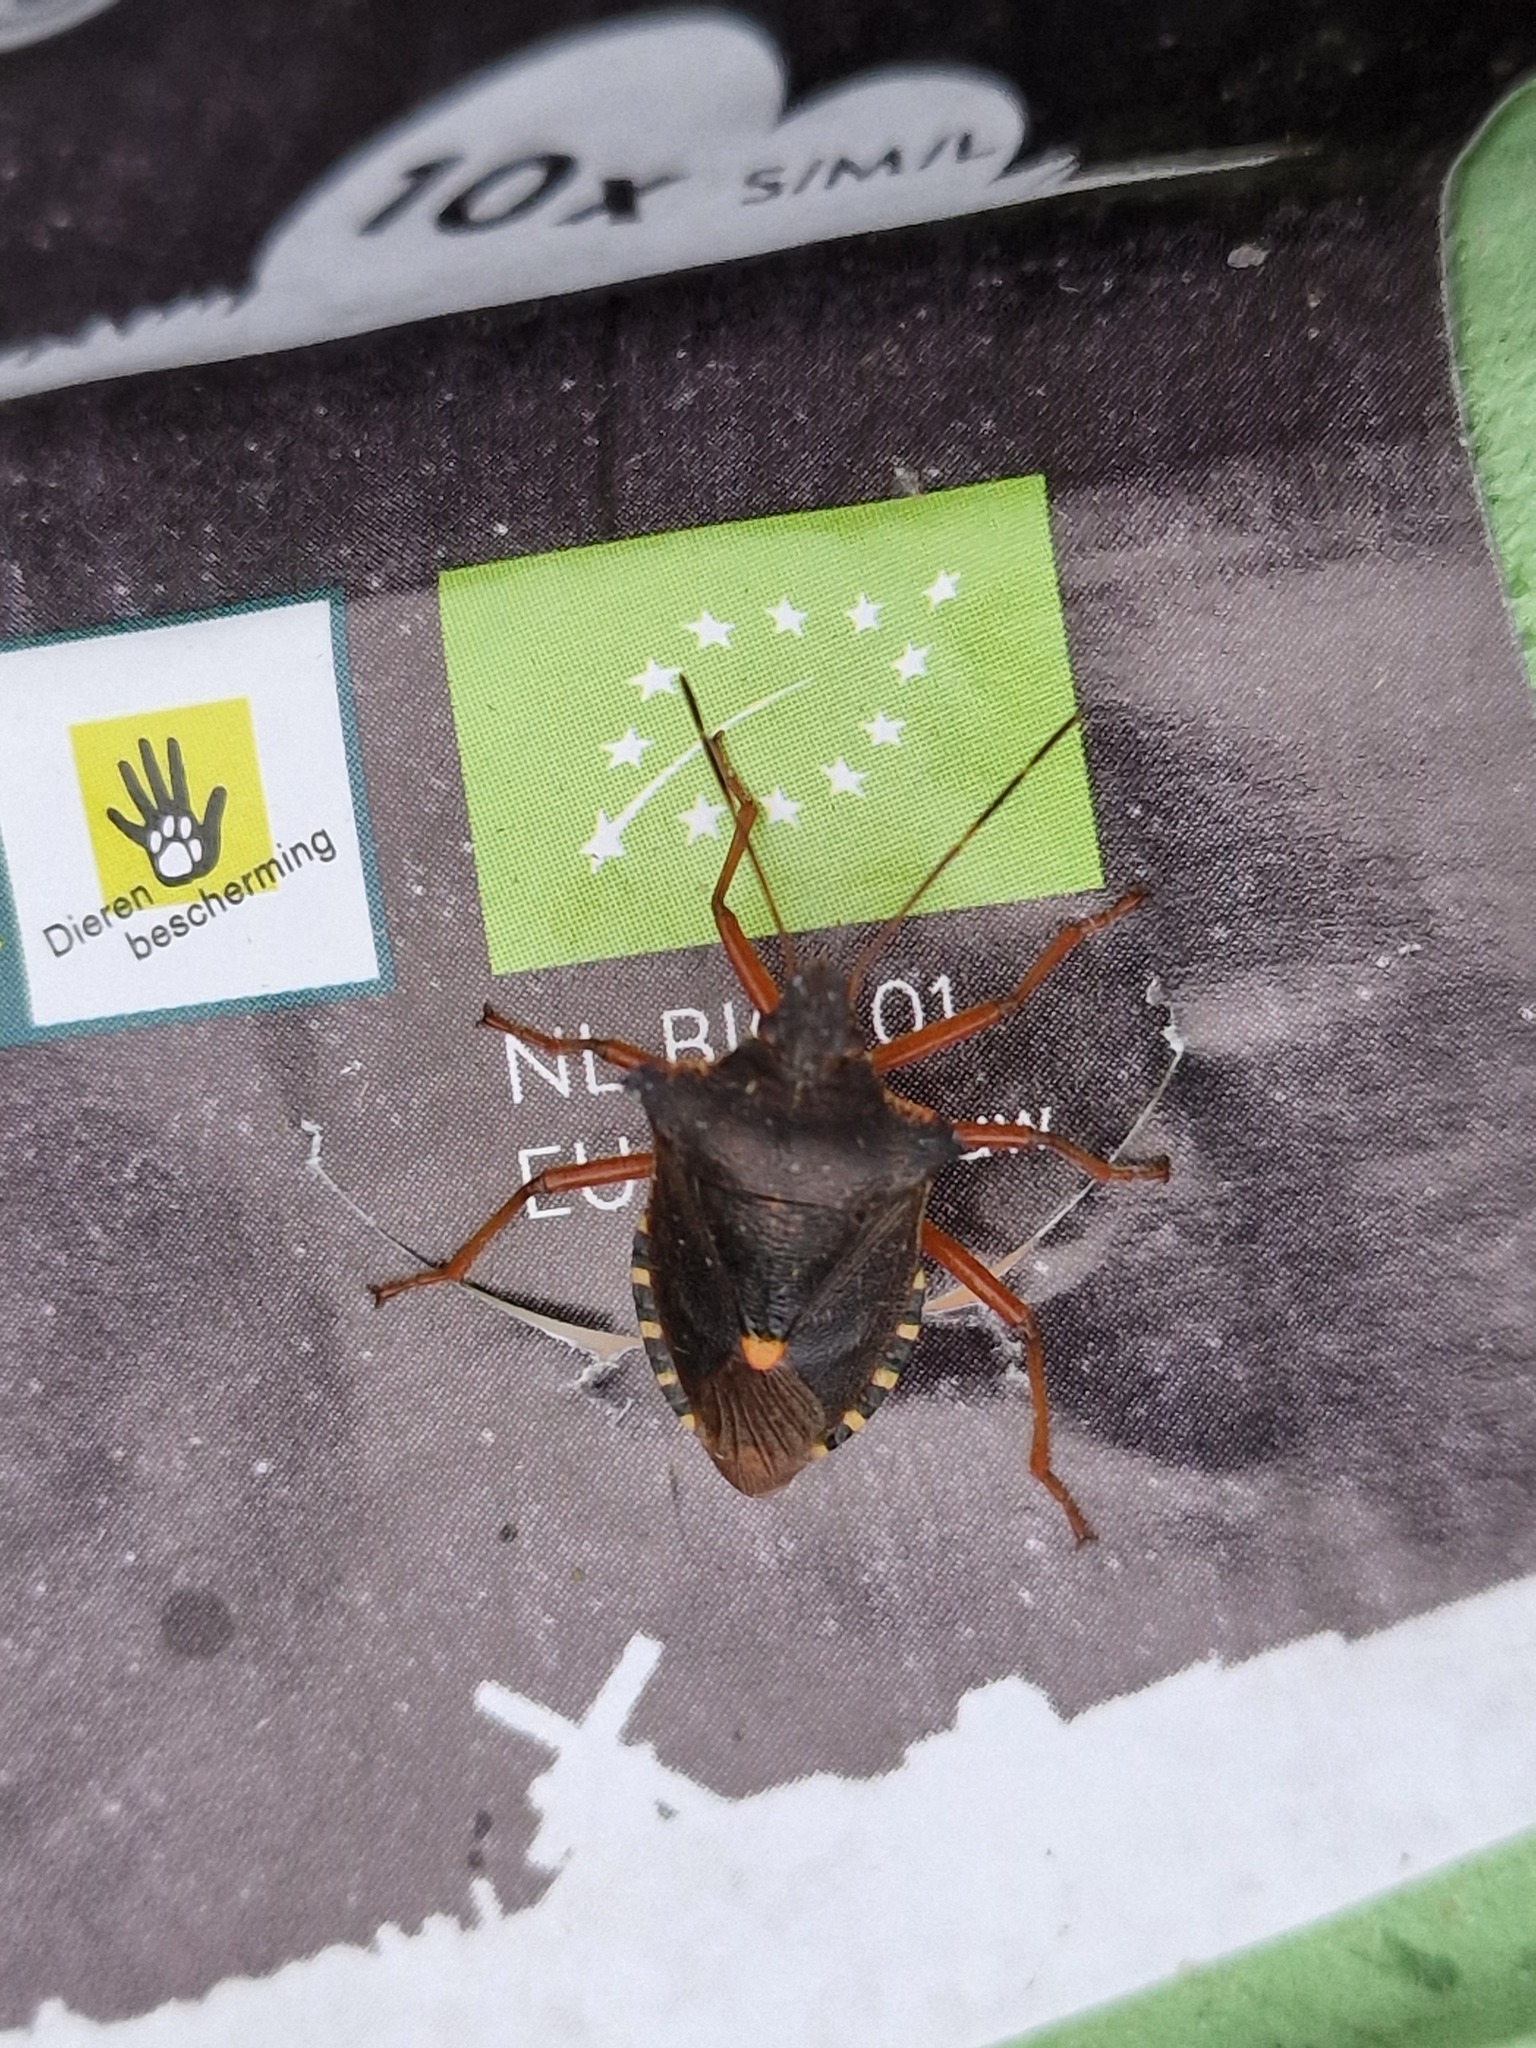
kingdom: Animalia
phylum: Arthropoda
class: Insecta
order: Hemiptera
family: Pentatomidae
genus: Pentatoma
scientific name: Pentatoma rufipes
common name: Forest bug
